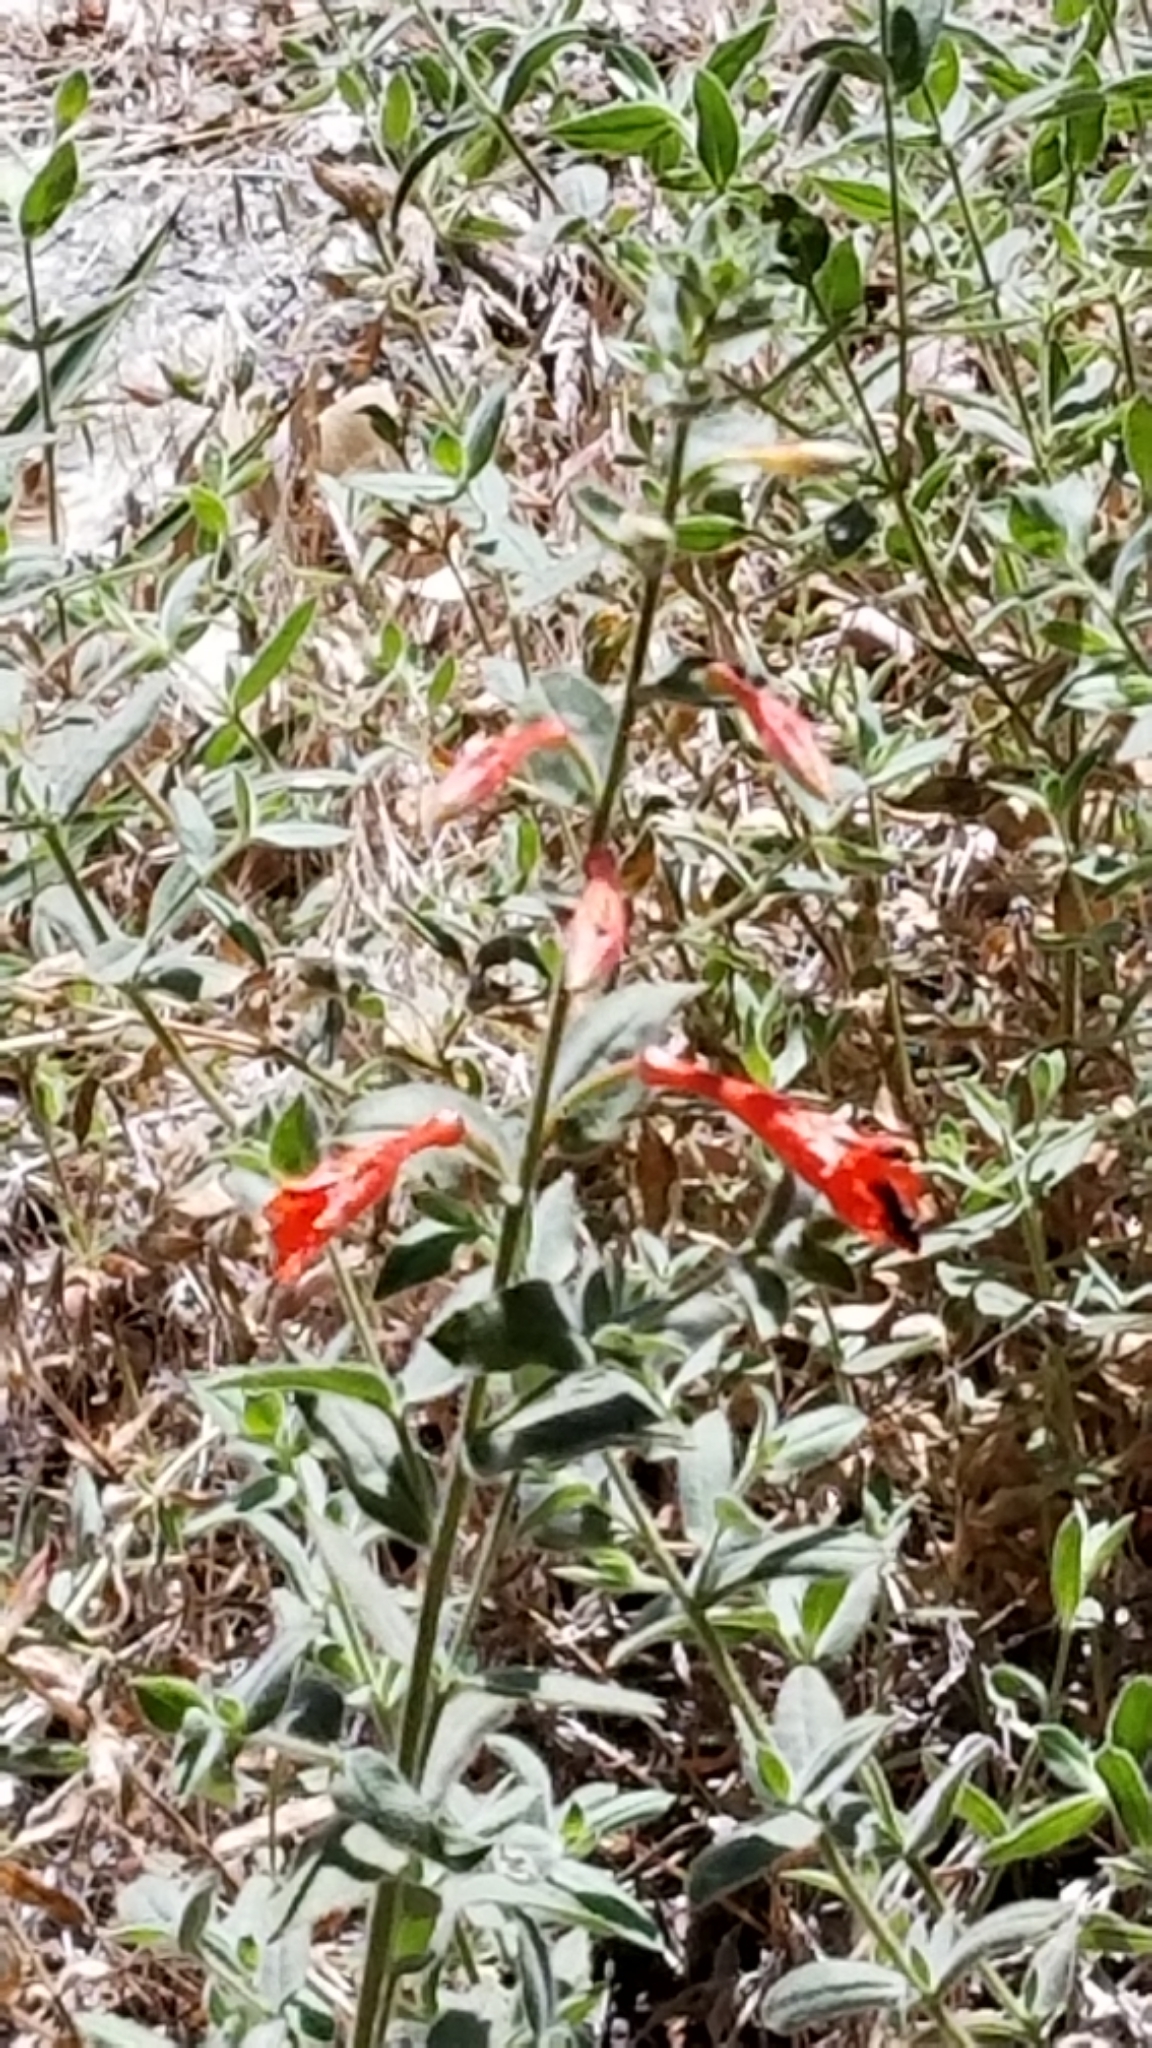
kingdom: Plantae
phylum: Tracheophyta
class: Magnoliopsida
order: Myrtales
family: Onagraceae
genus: Epilobium
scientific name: Epilobium canum
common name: California-fuchsia
